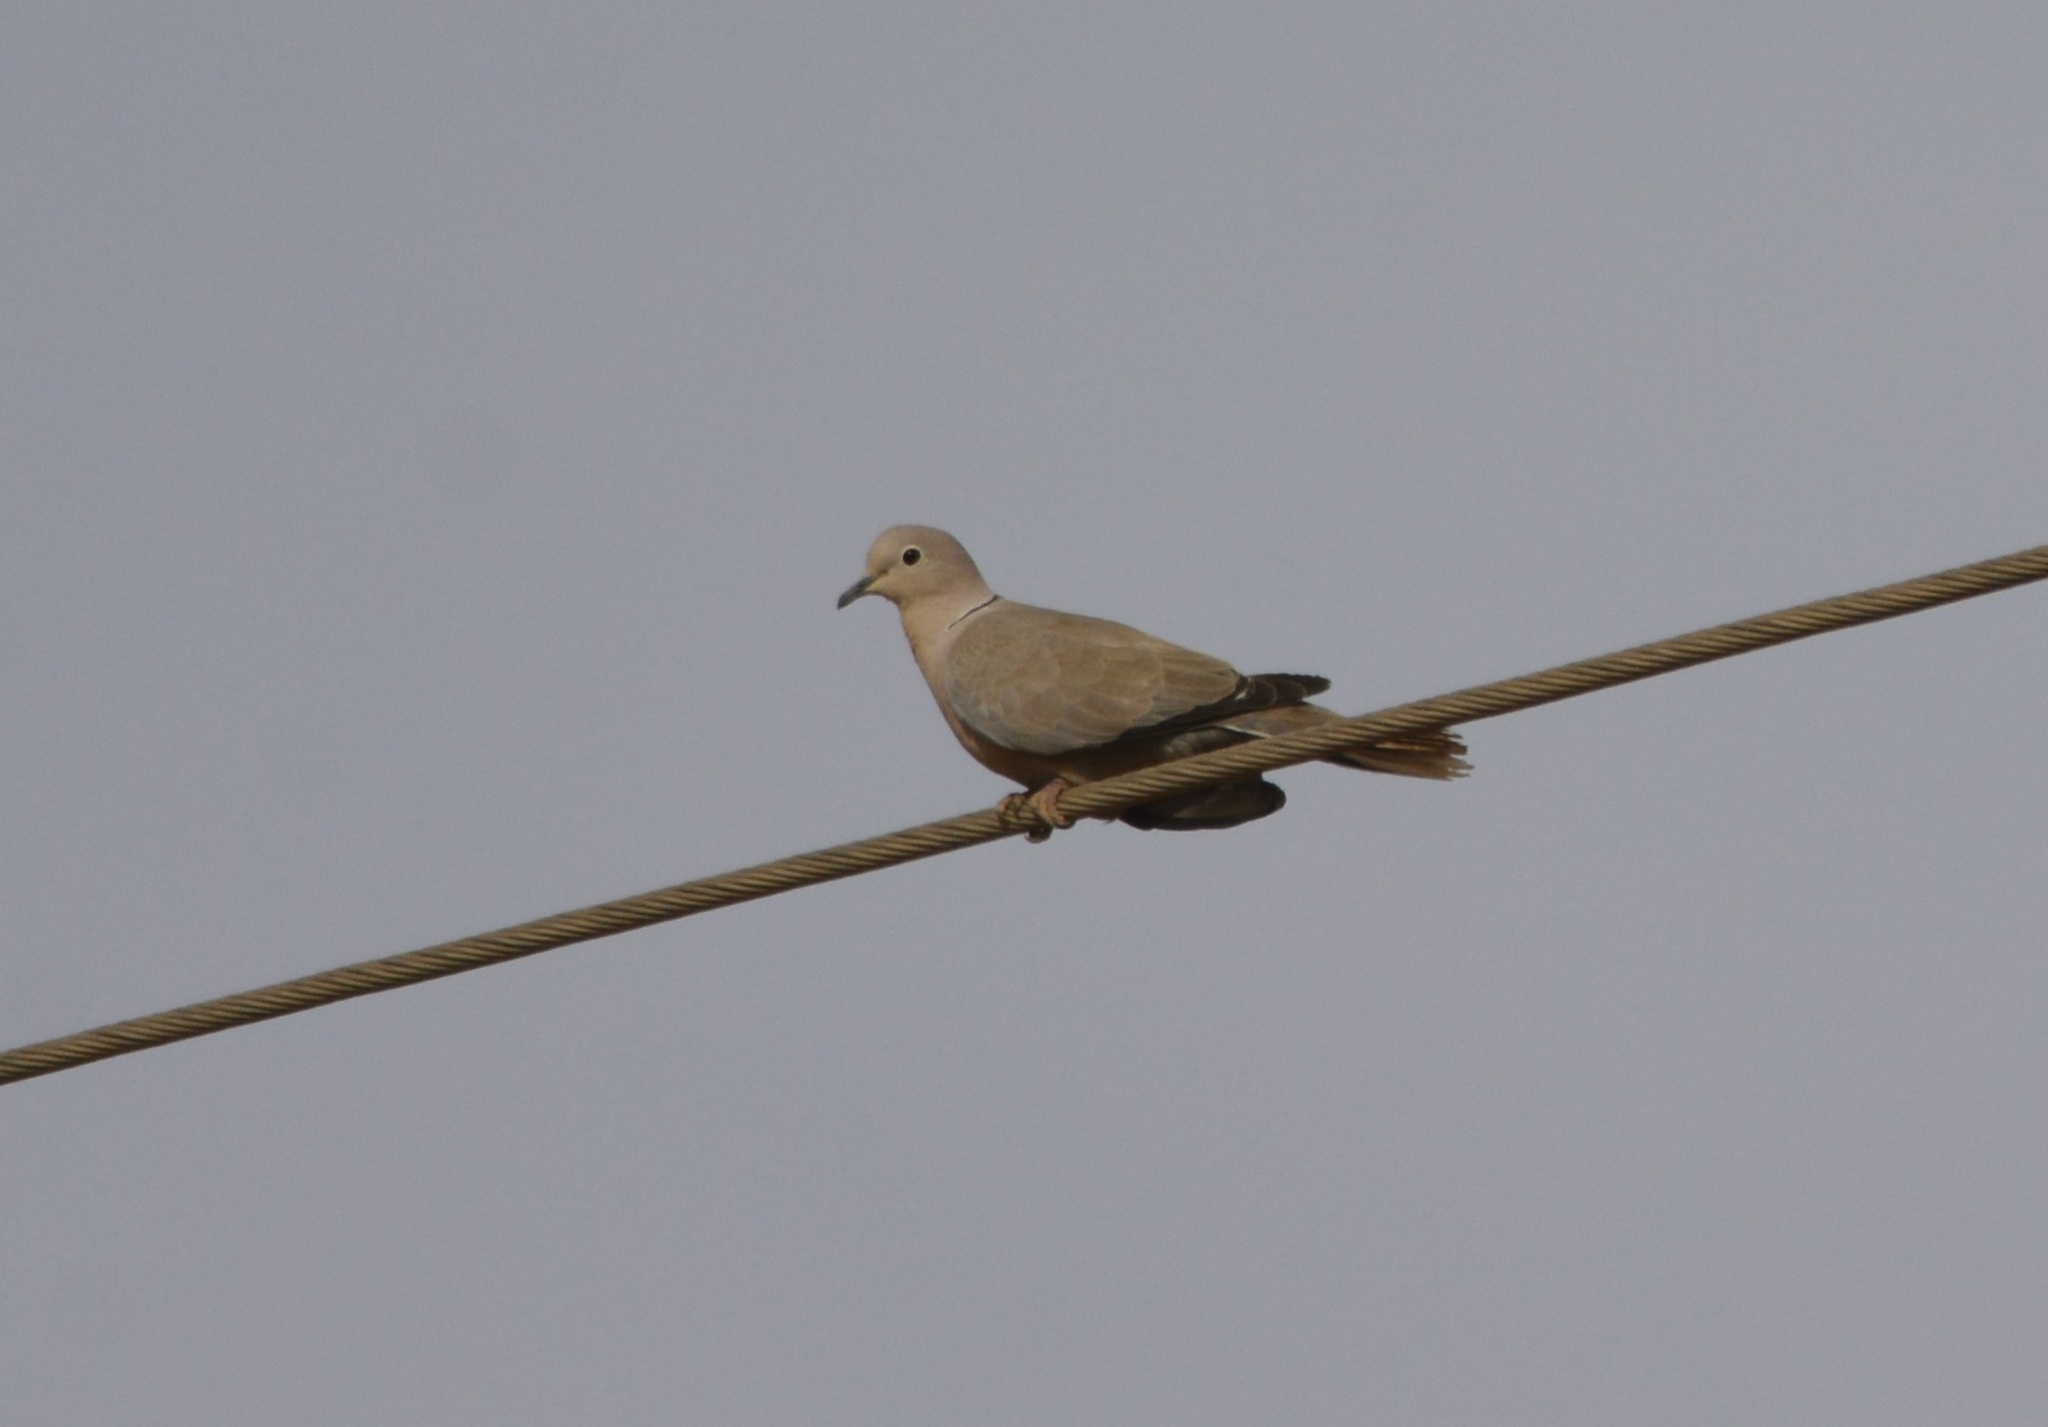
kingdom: Animalia
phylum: Chordata
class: Aves
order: Columbiformes
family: Columbidae
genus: Streptopelia
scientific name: Streptopelia decaocto
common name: Eurasian collared dove
